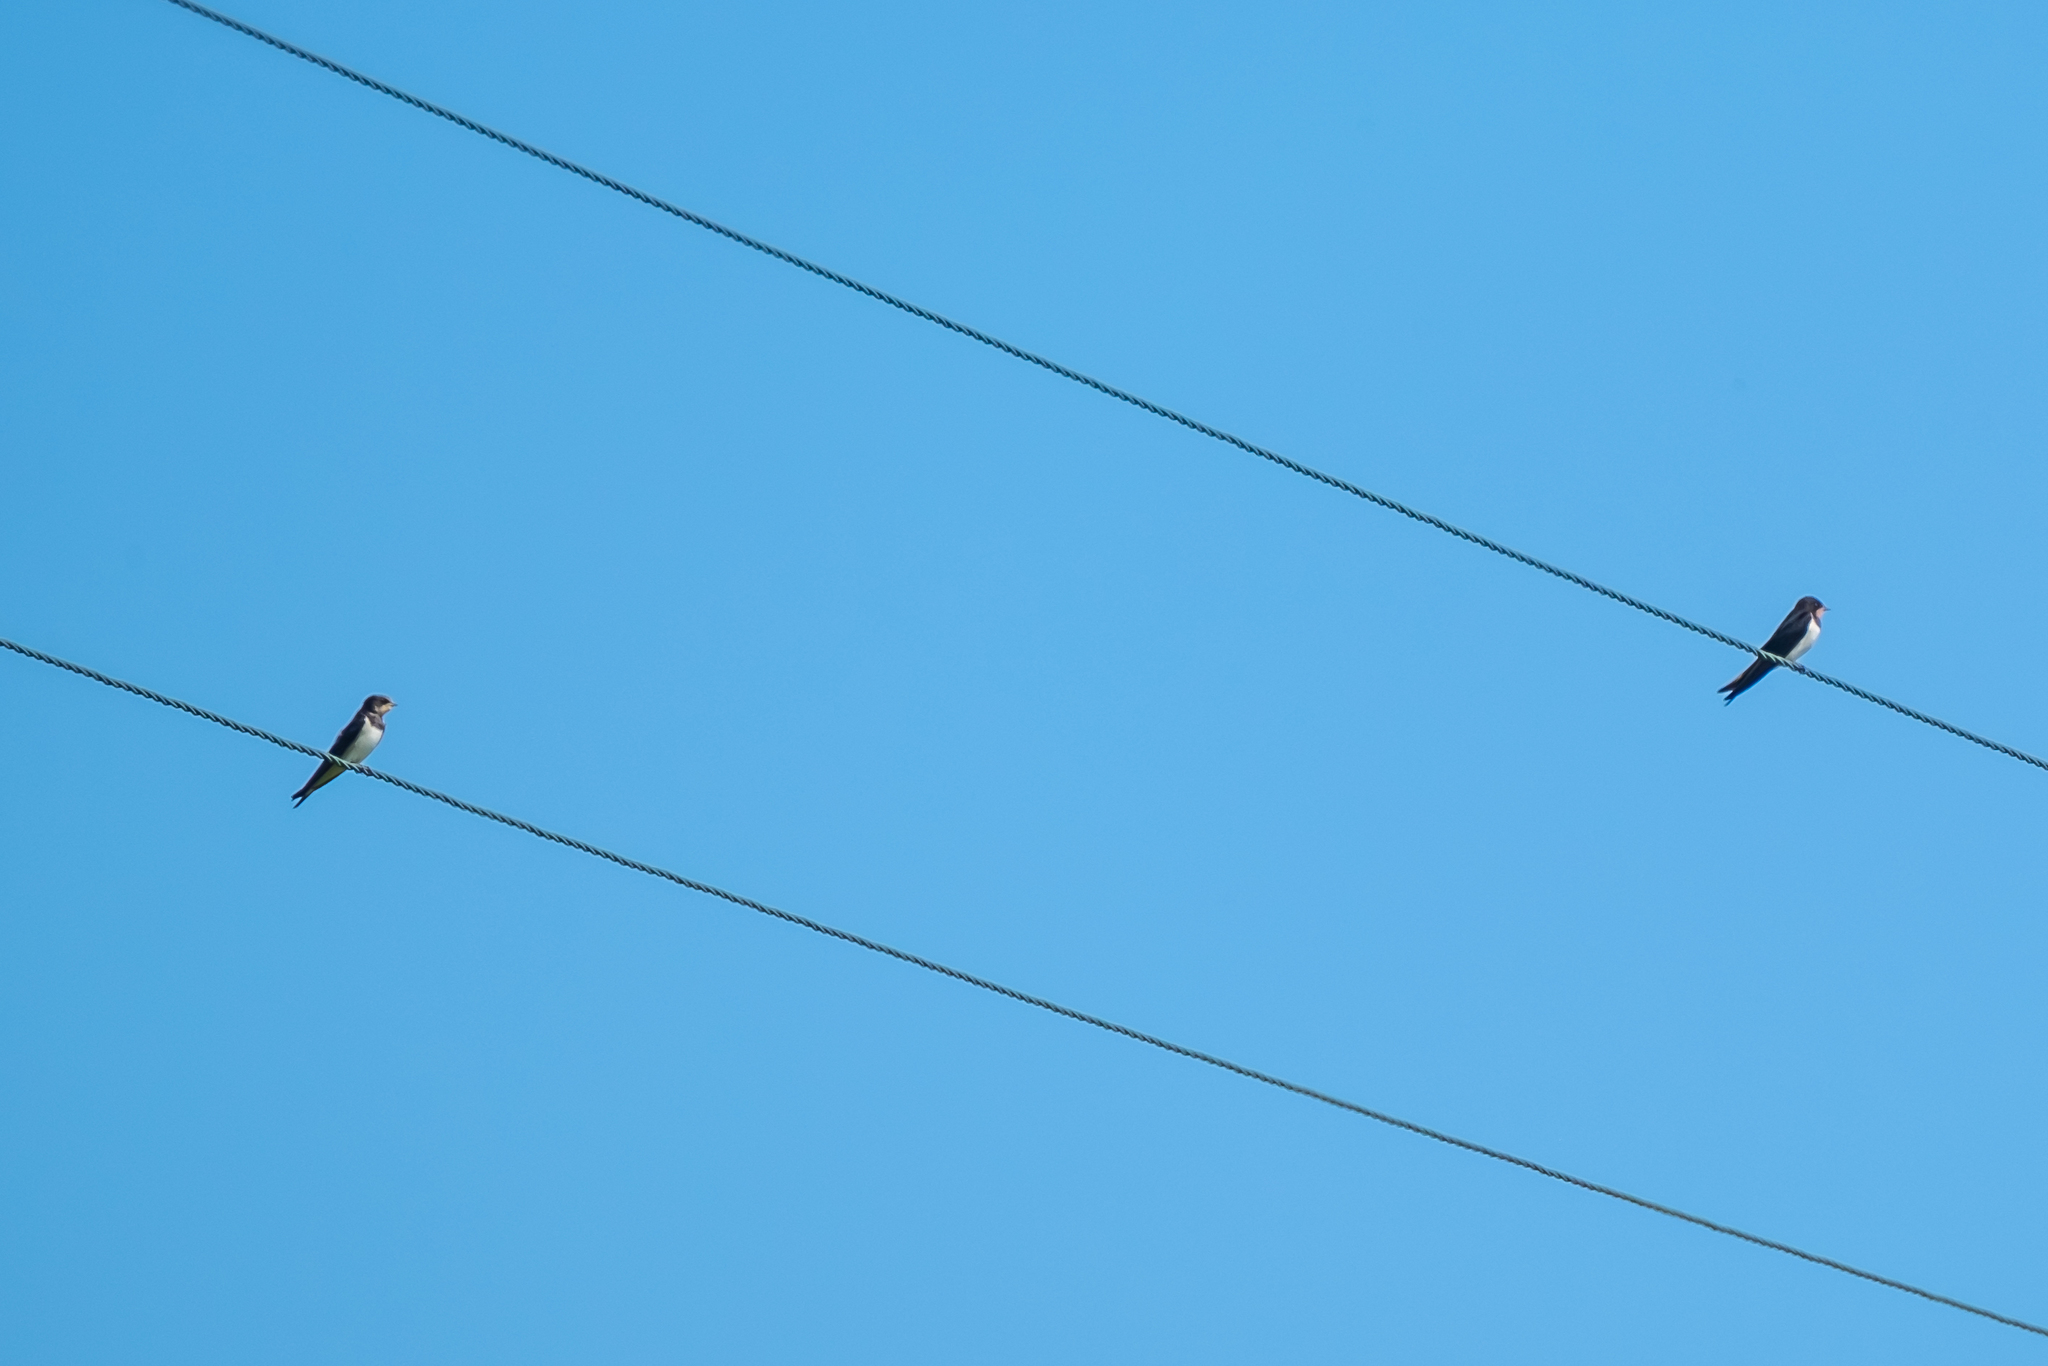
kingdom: Animalia
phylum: Chordata
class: Aves
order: Passeriformes
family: Hirundinidae
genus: Hirundo
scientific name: Hirundo rustica
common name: Barn swallow
